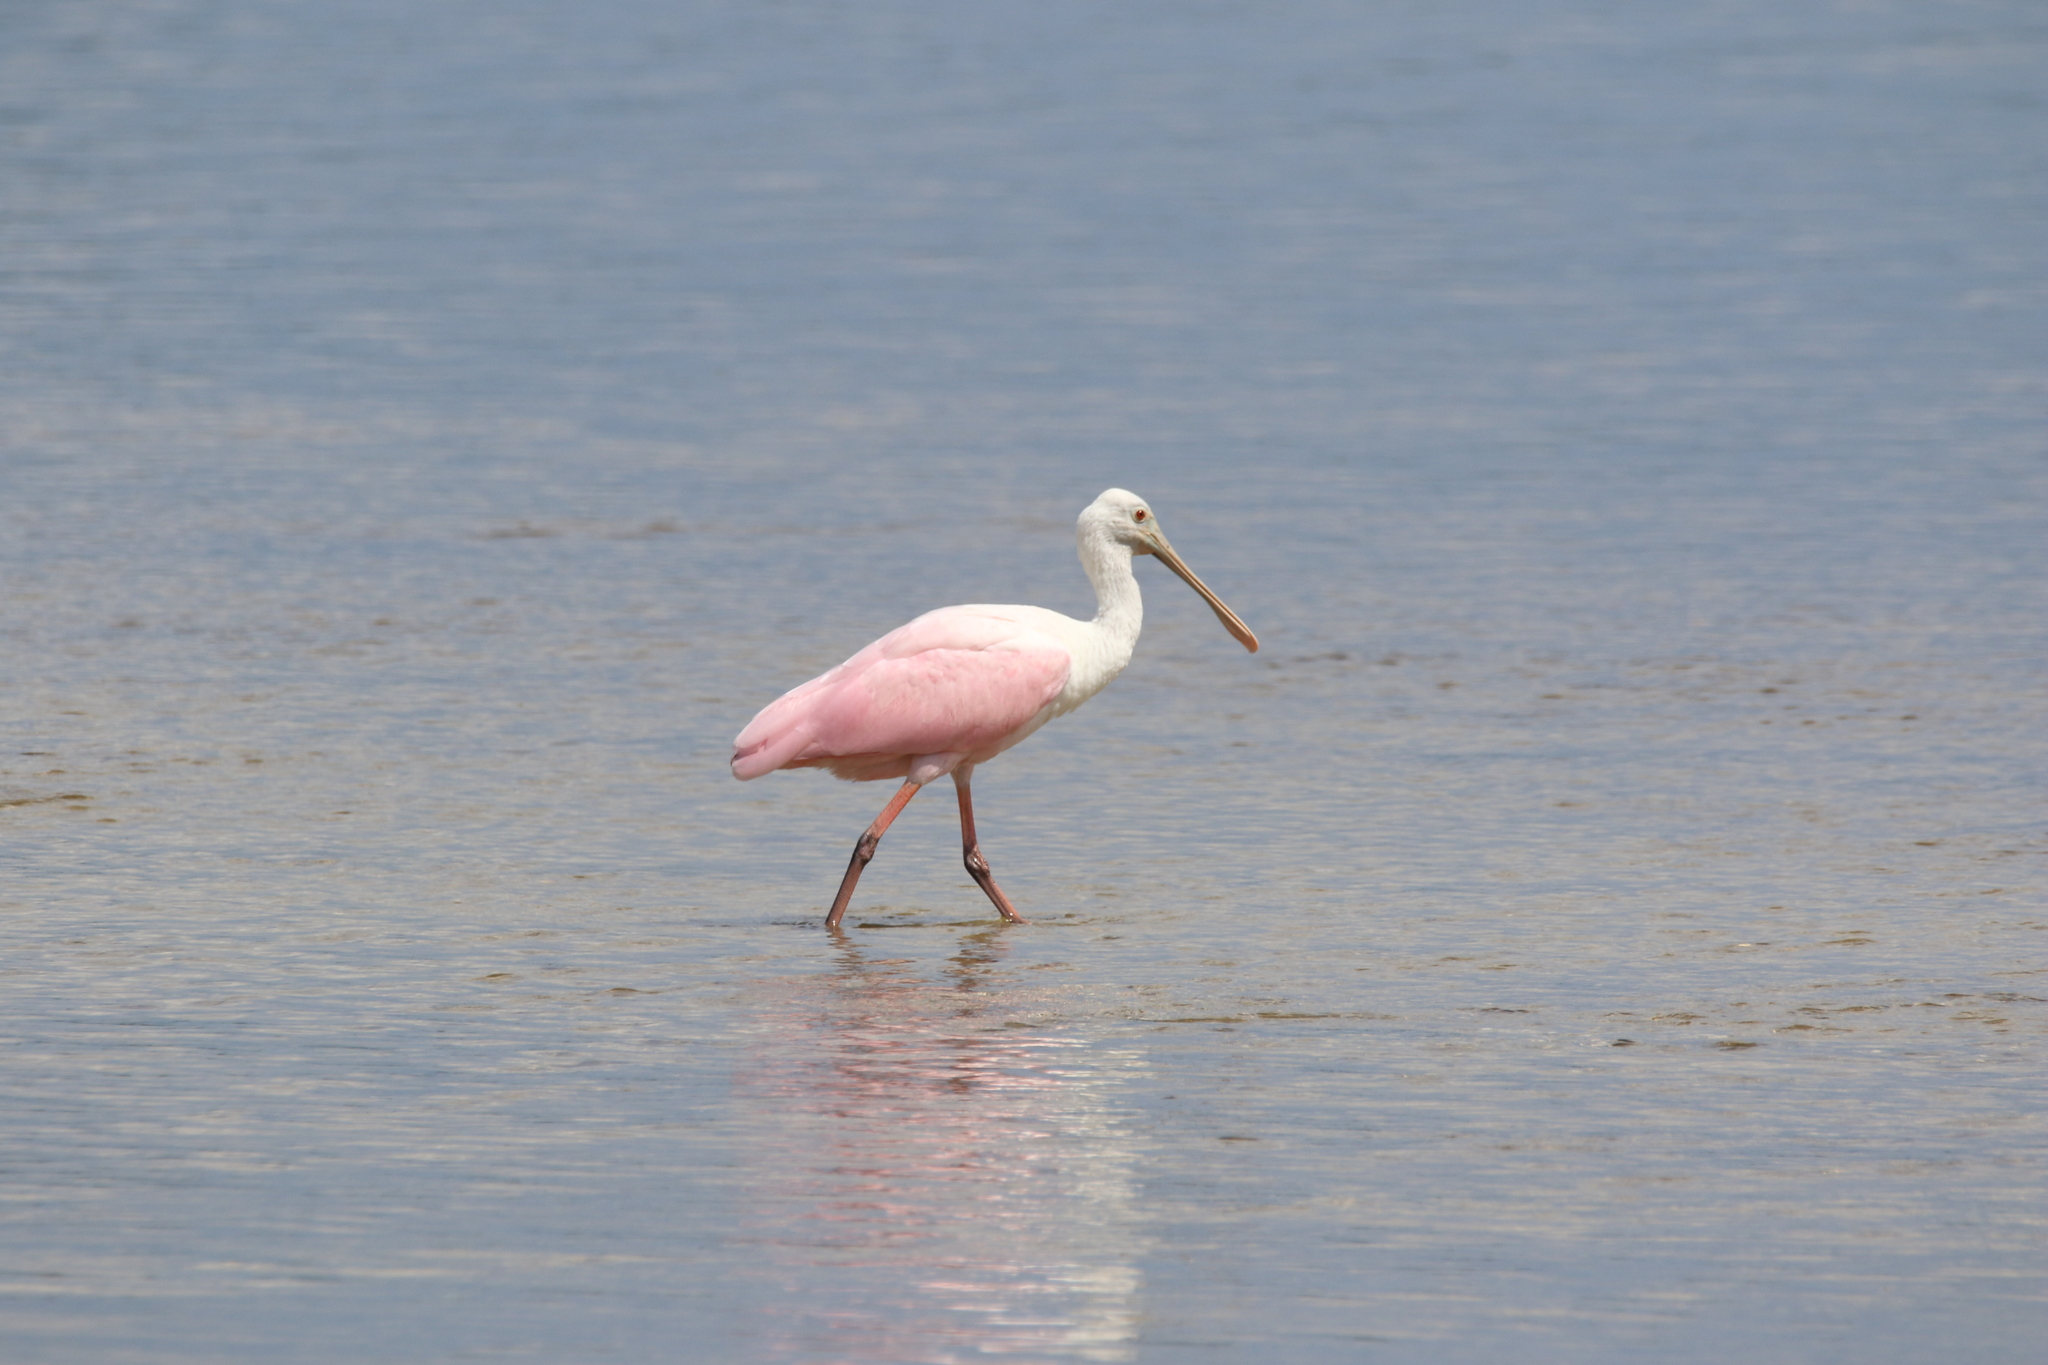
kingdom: Animalia
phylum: Chordata
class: Aves
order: Pelecaniformes
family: Threskiornithidae
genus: Platalea
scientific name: Platalea ajaja
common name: Roseate spoonbill
